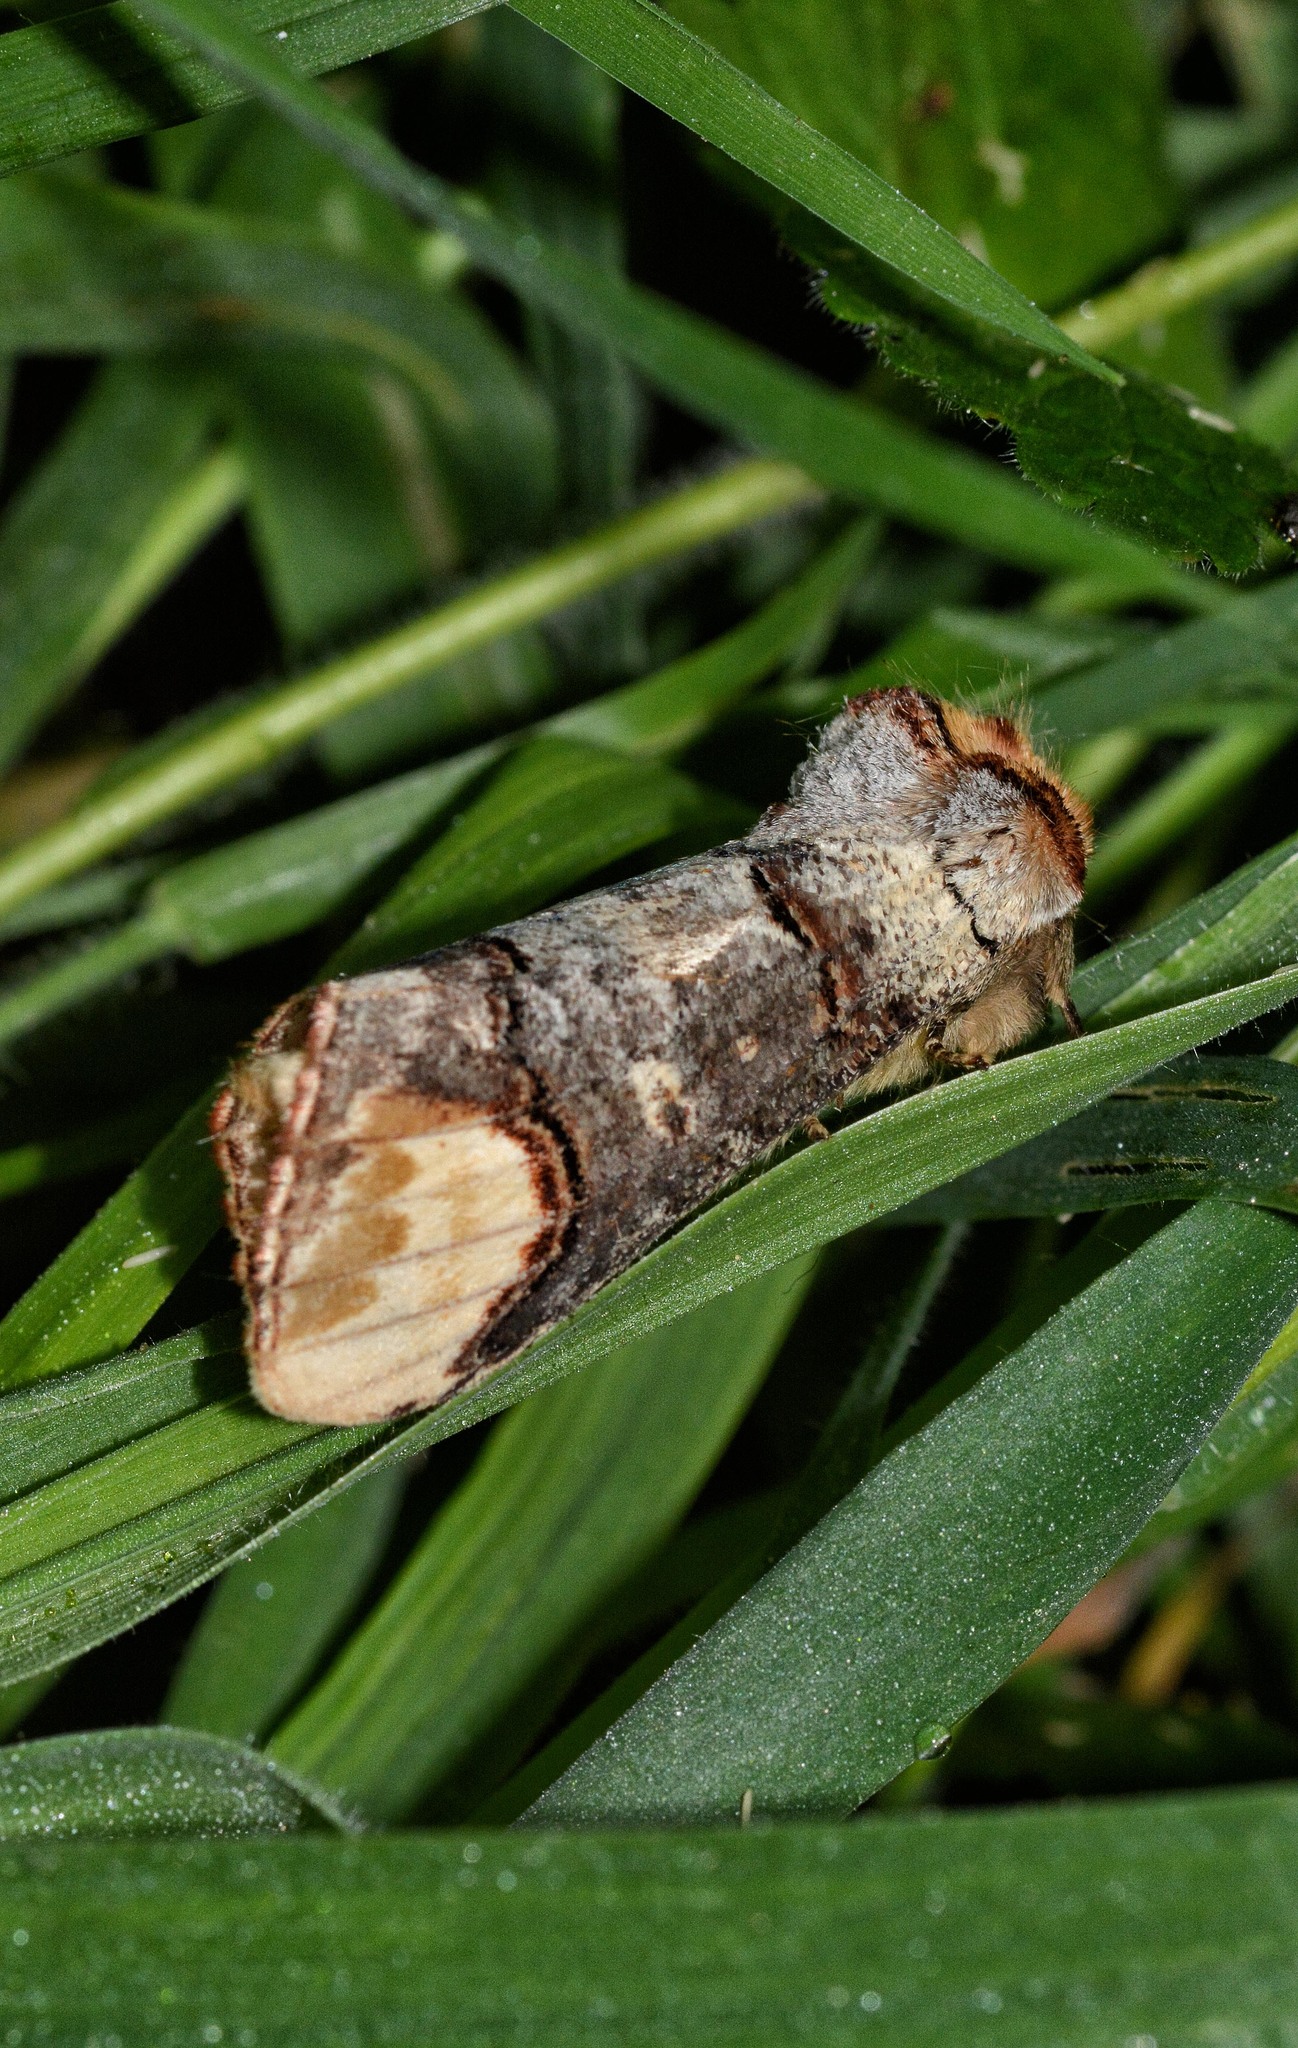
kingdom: Animalia
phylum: Arthropoda
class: Insecta
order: Lepidoptera
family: Notodontidae
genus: Phalera
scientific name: Phalera bucephala
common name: Buff-tip
